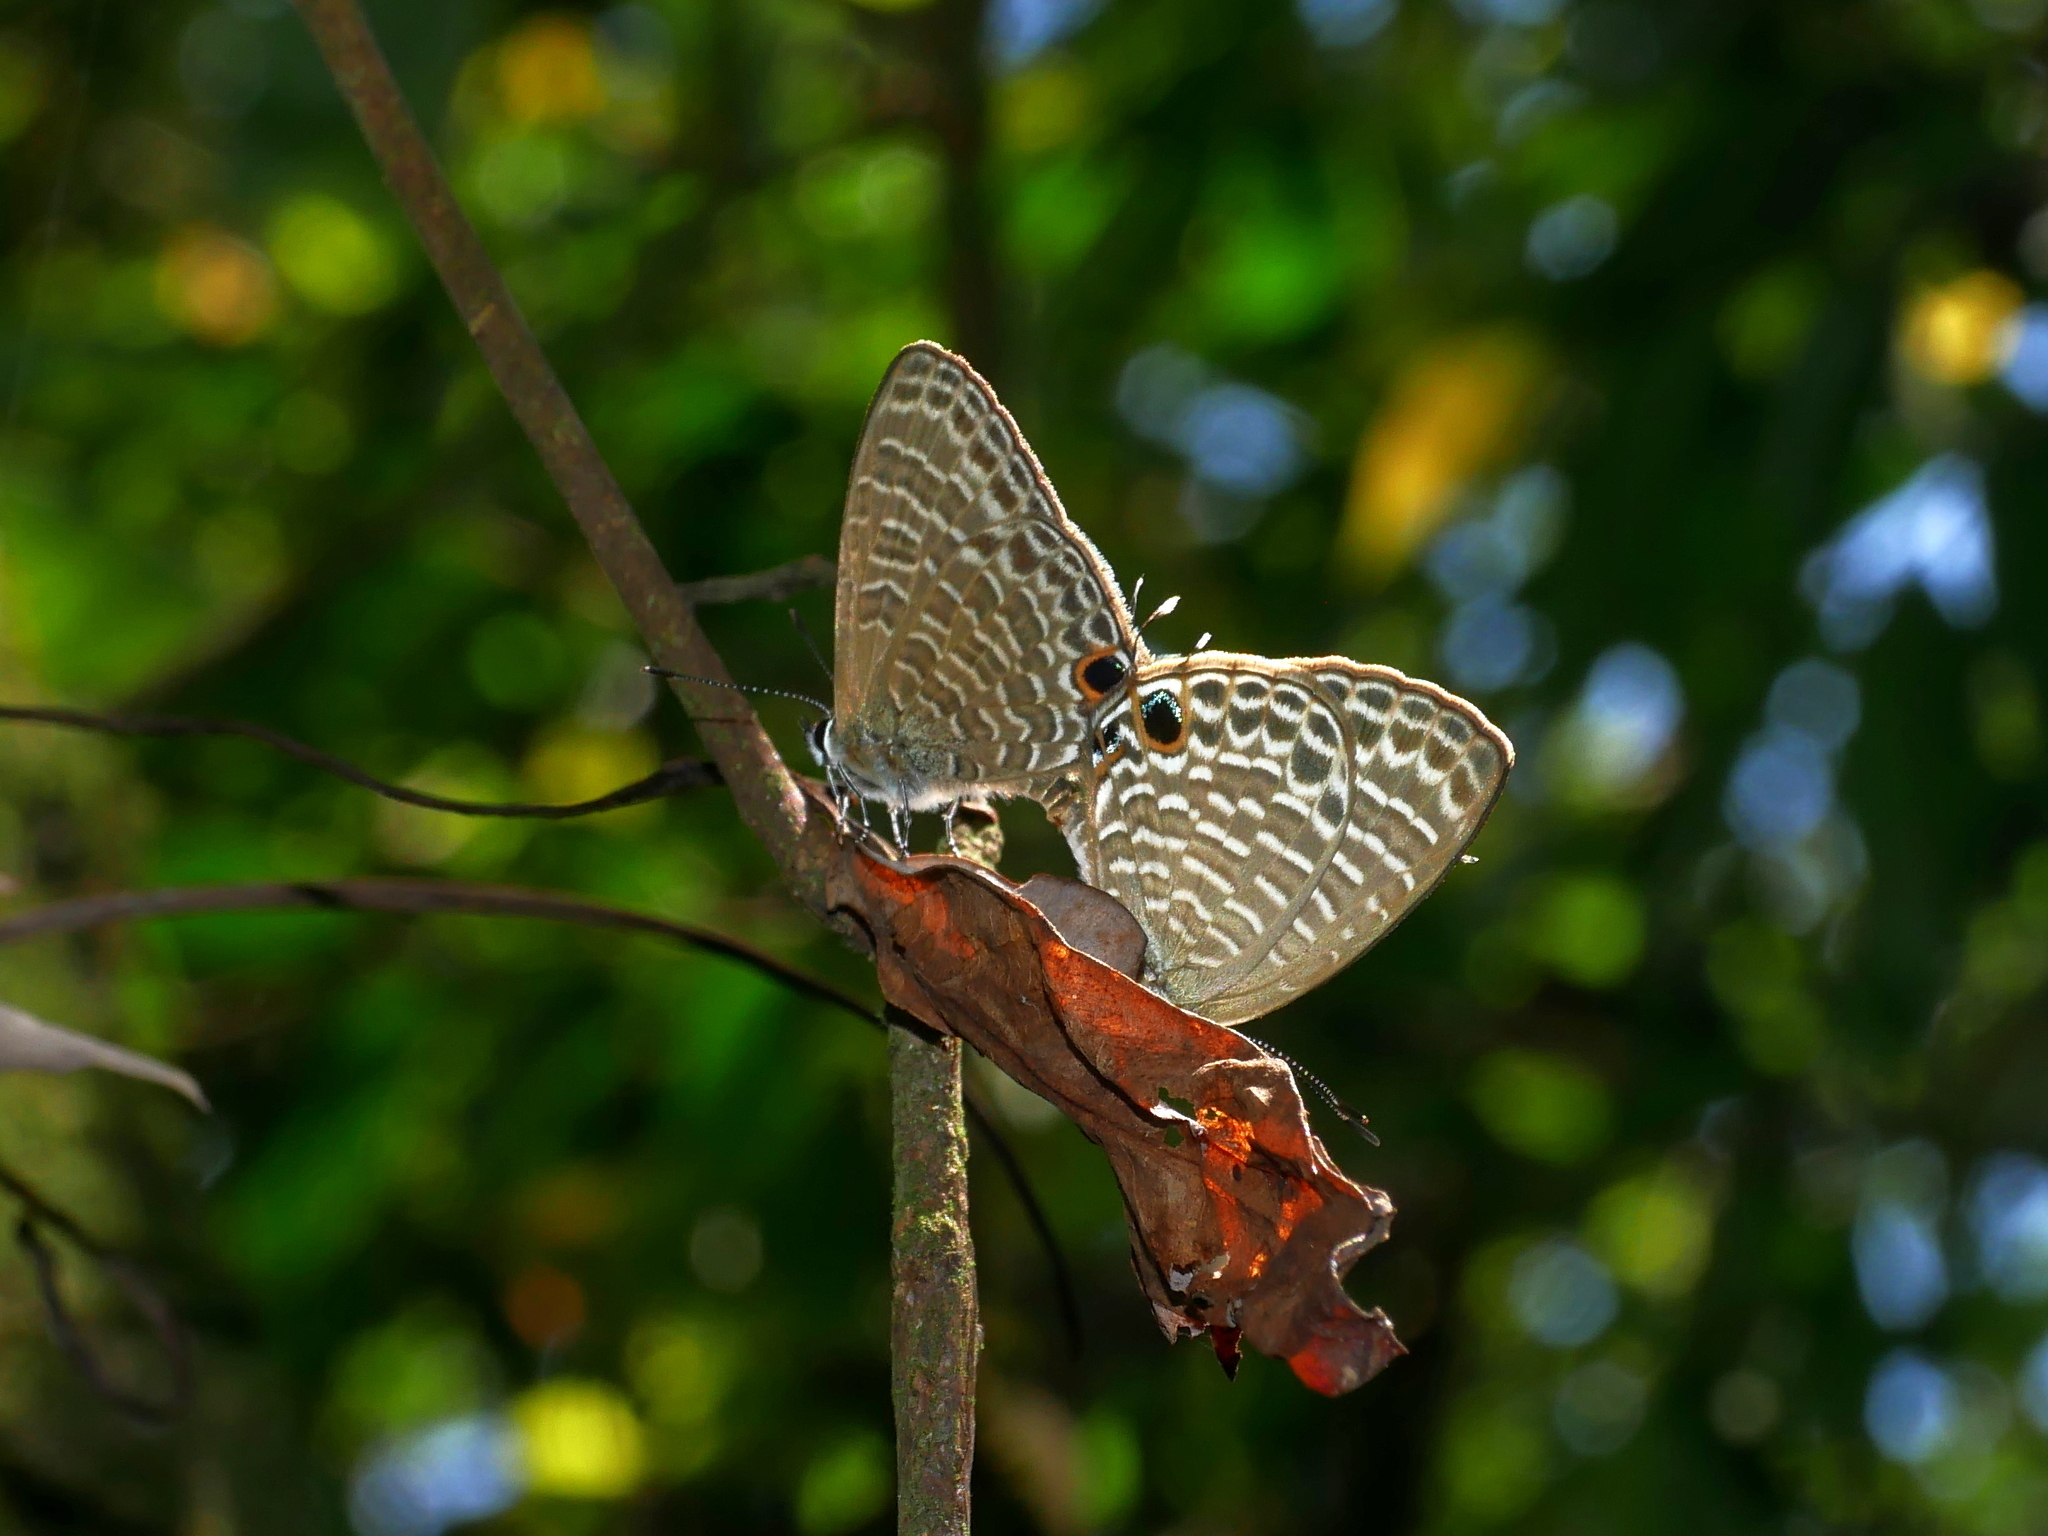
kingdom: Animalia
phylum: Arthropoda
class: Insecta
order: Lepidoptera
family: Lycaenidae
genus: Nacaduba
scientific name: Nacaduba kurava
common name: Transparent 6-line blue
